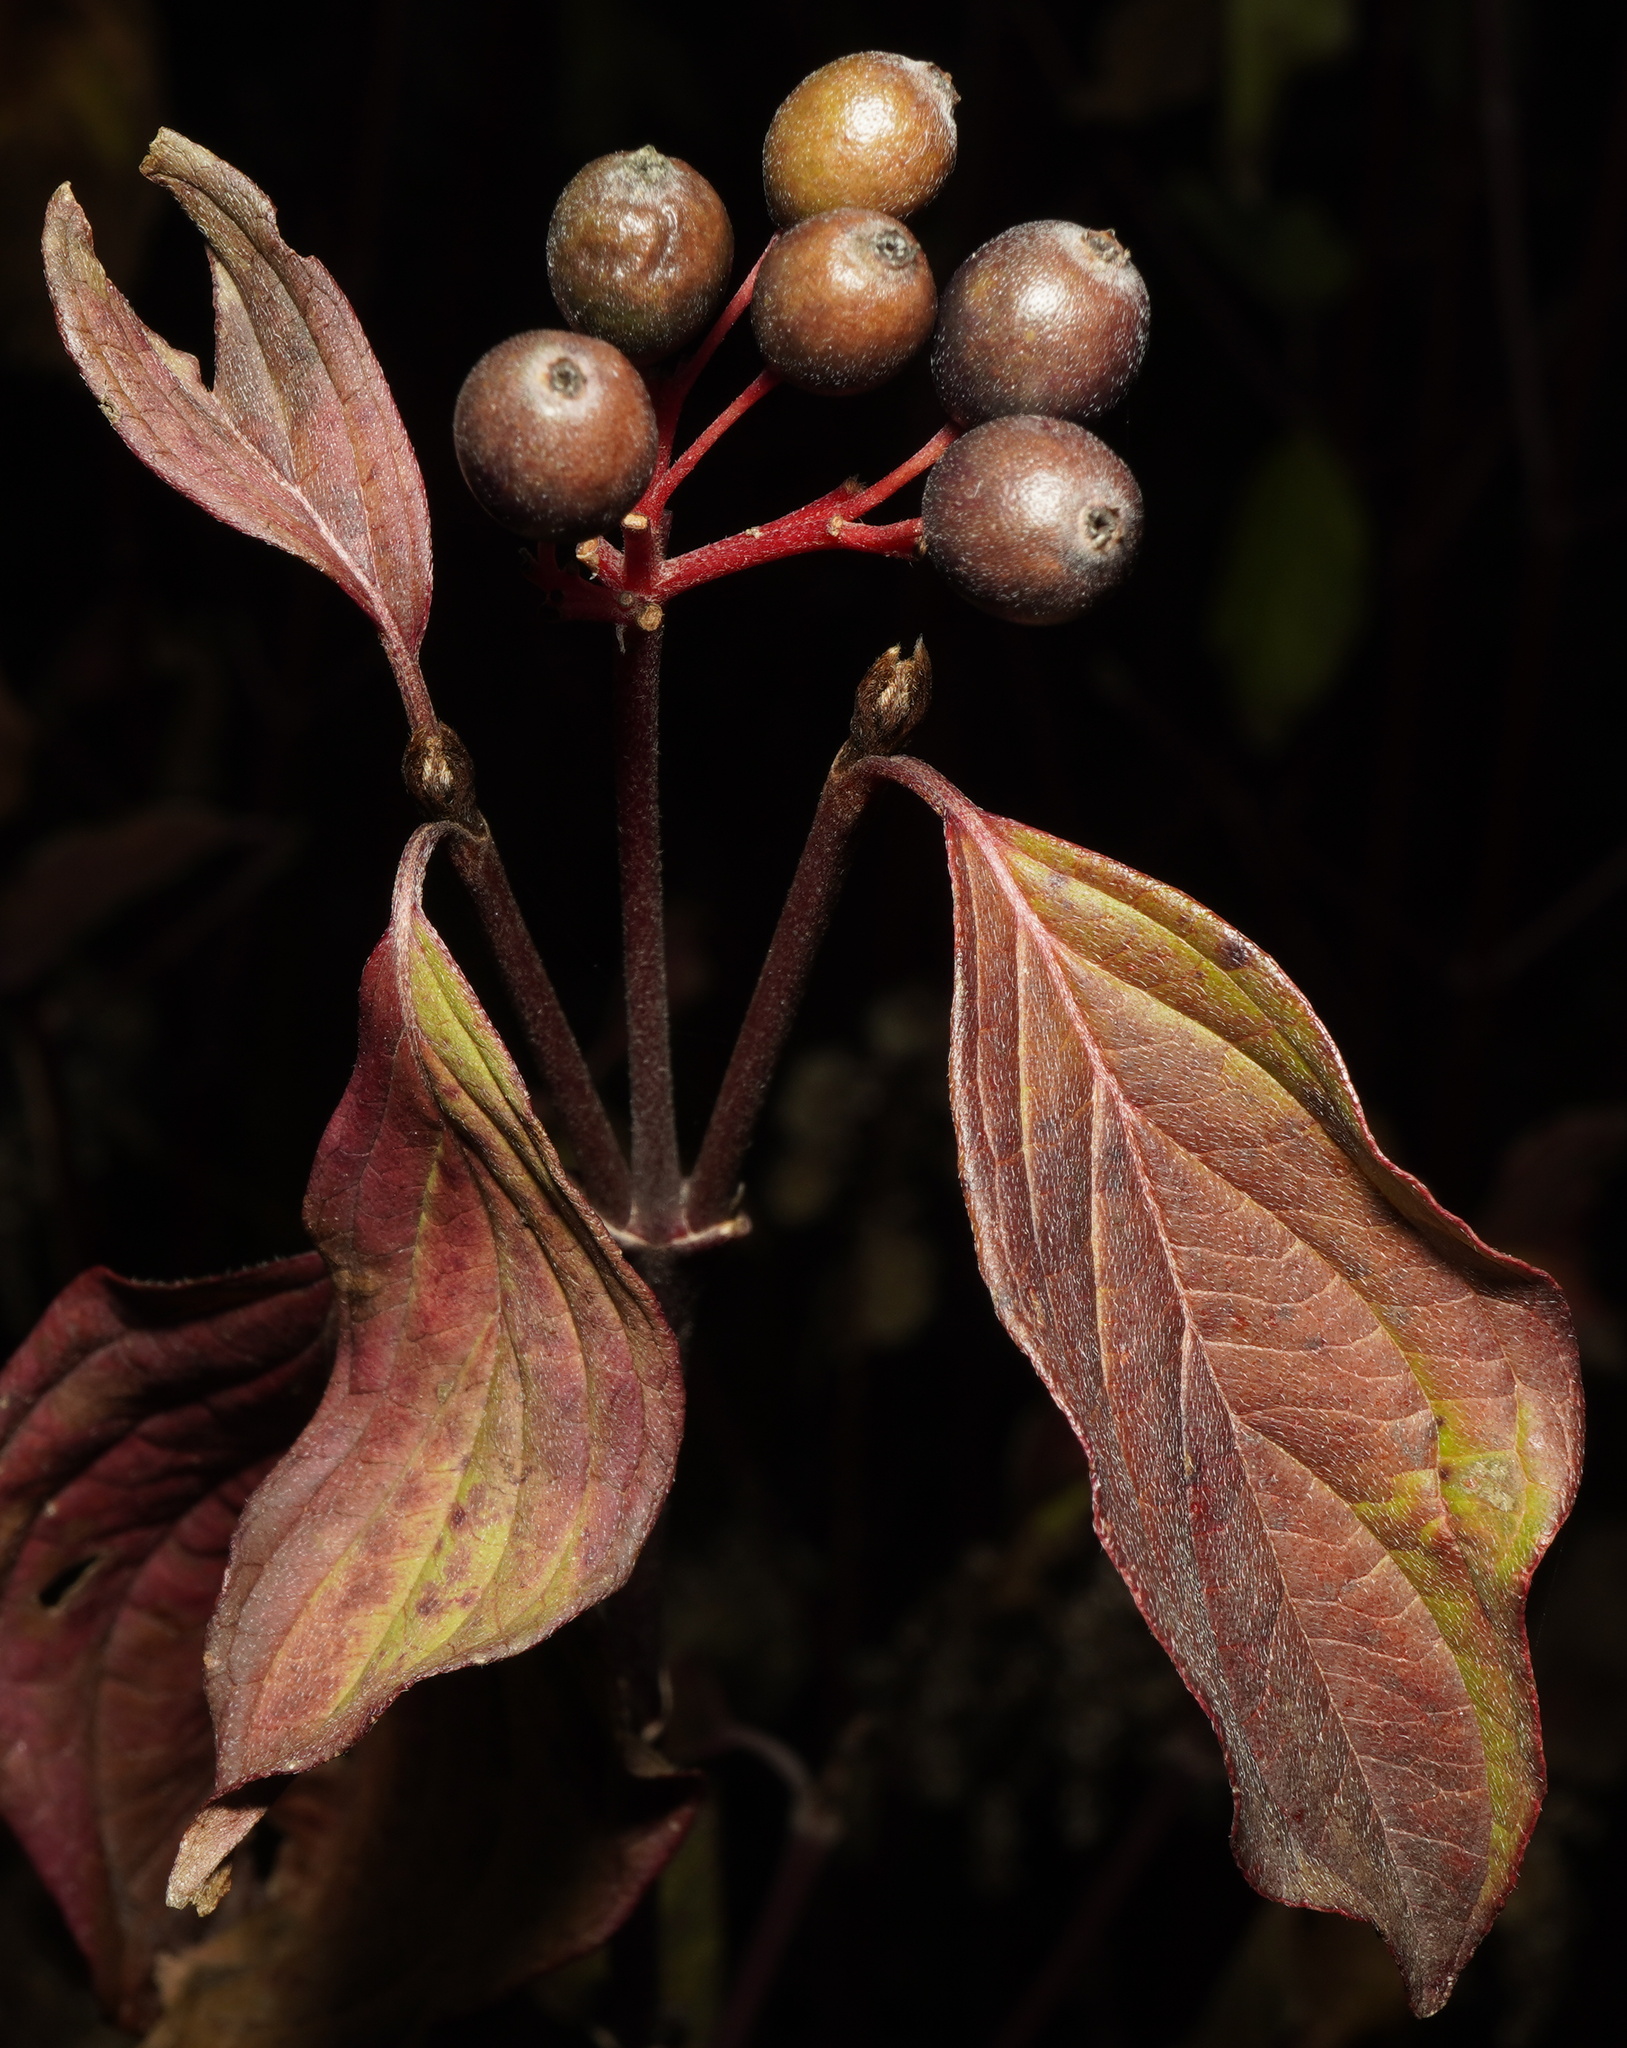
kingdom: Plantae
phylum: Tracheophyta
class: Magnoliopsida
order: Cornales
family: Cornaceae
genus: Cornus
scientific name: Cornus sanguinea
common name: Dogwood
